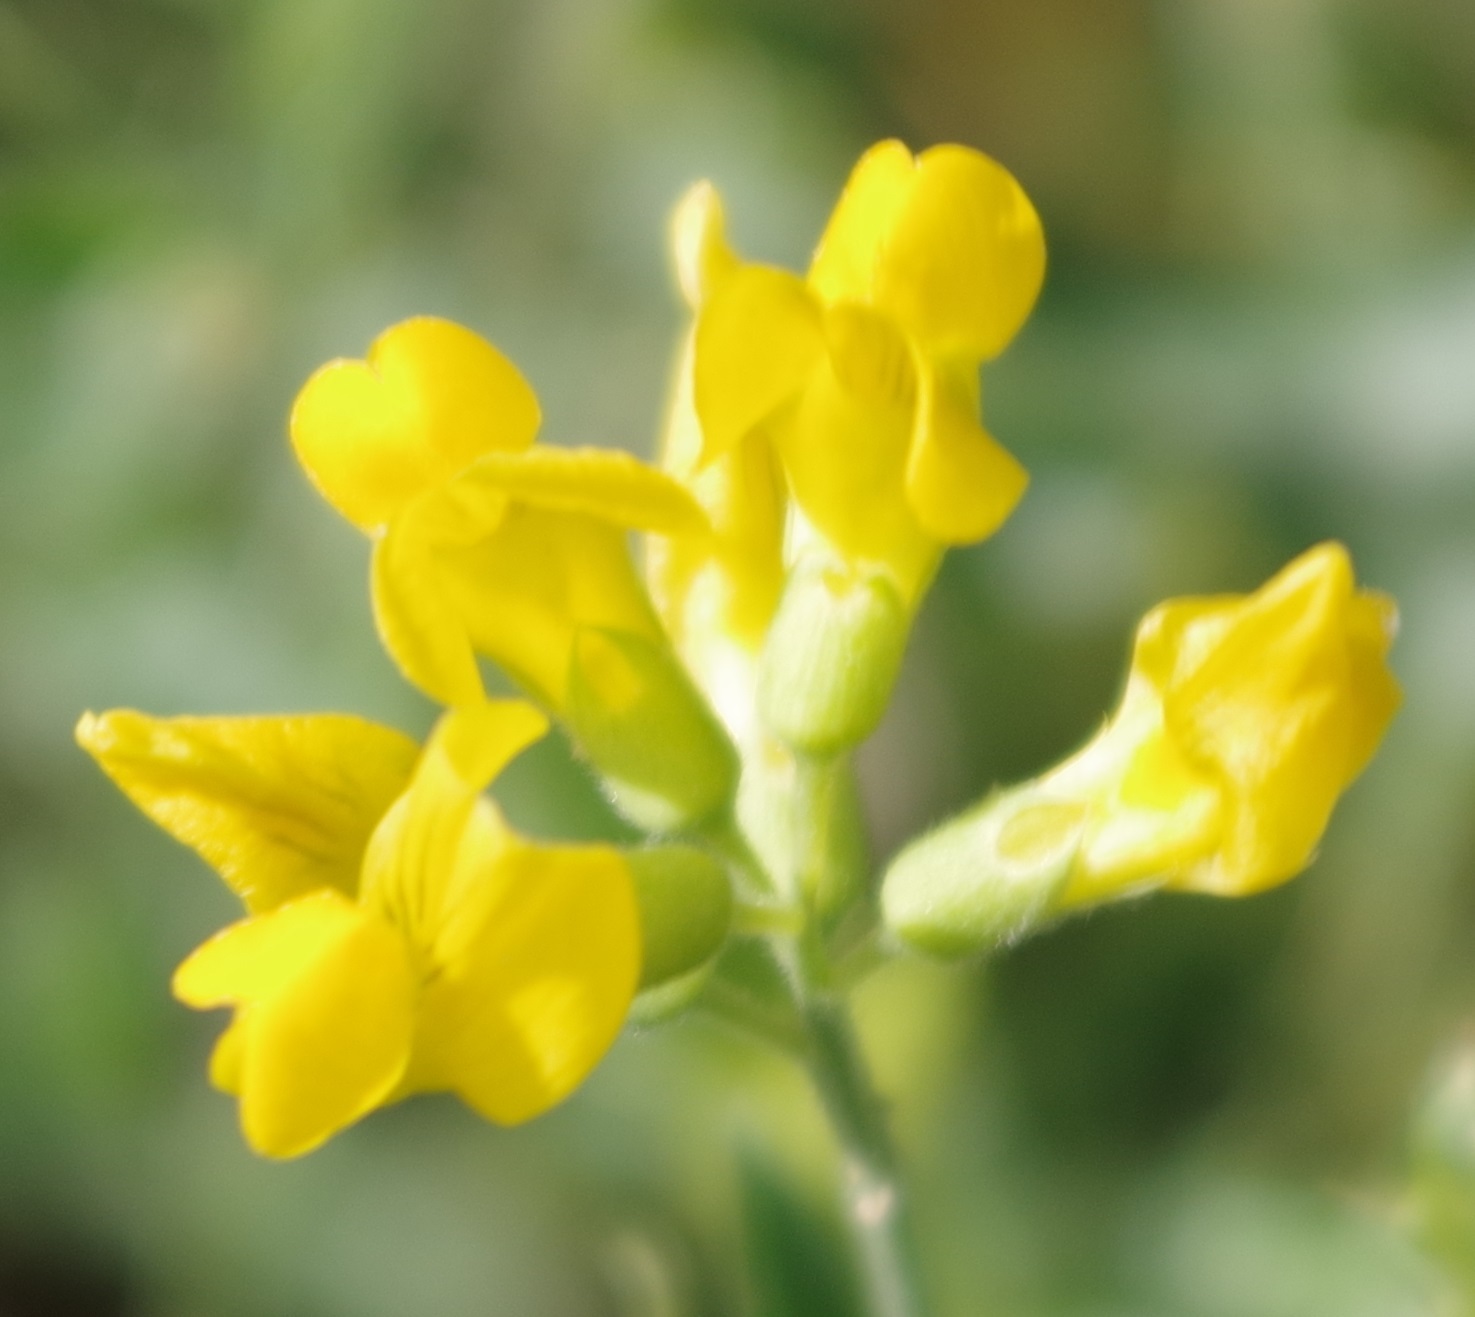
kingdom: Plantae
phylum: Tracheophyta
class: Magnoliopsida
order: Fabales
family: Fabaceae
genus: Lathyrus
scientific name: Lathyrus pratensis
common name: Meadow vetchling
